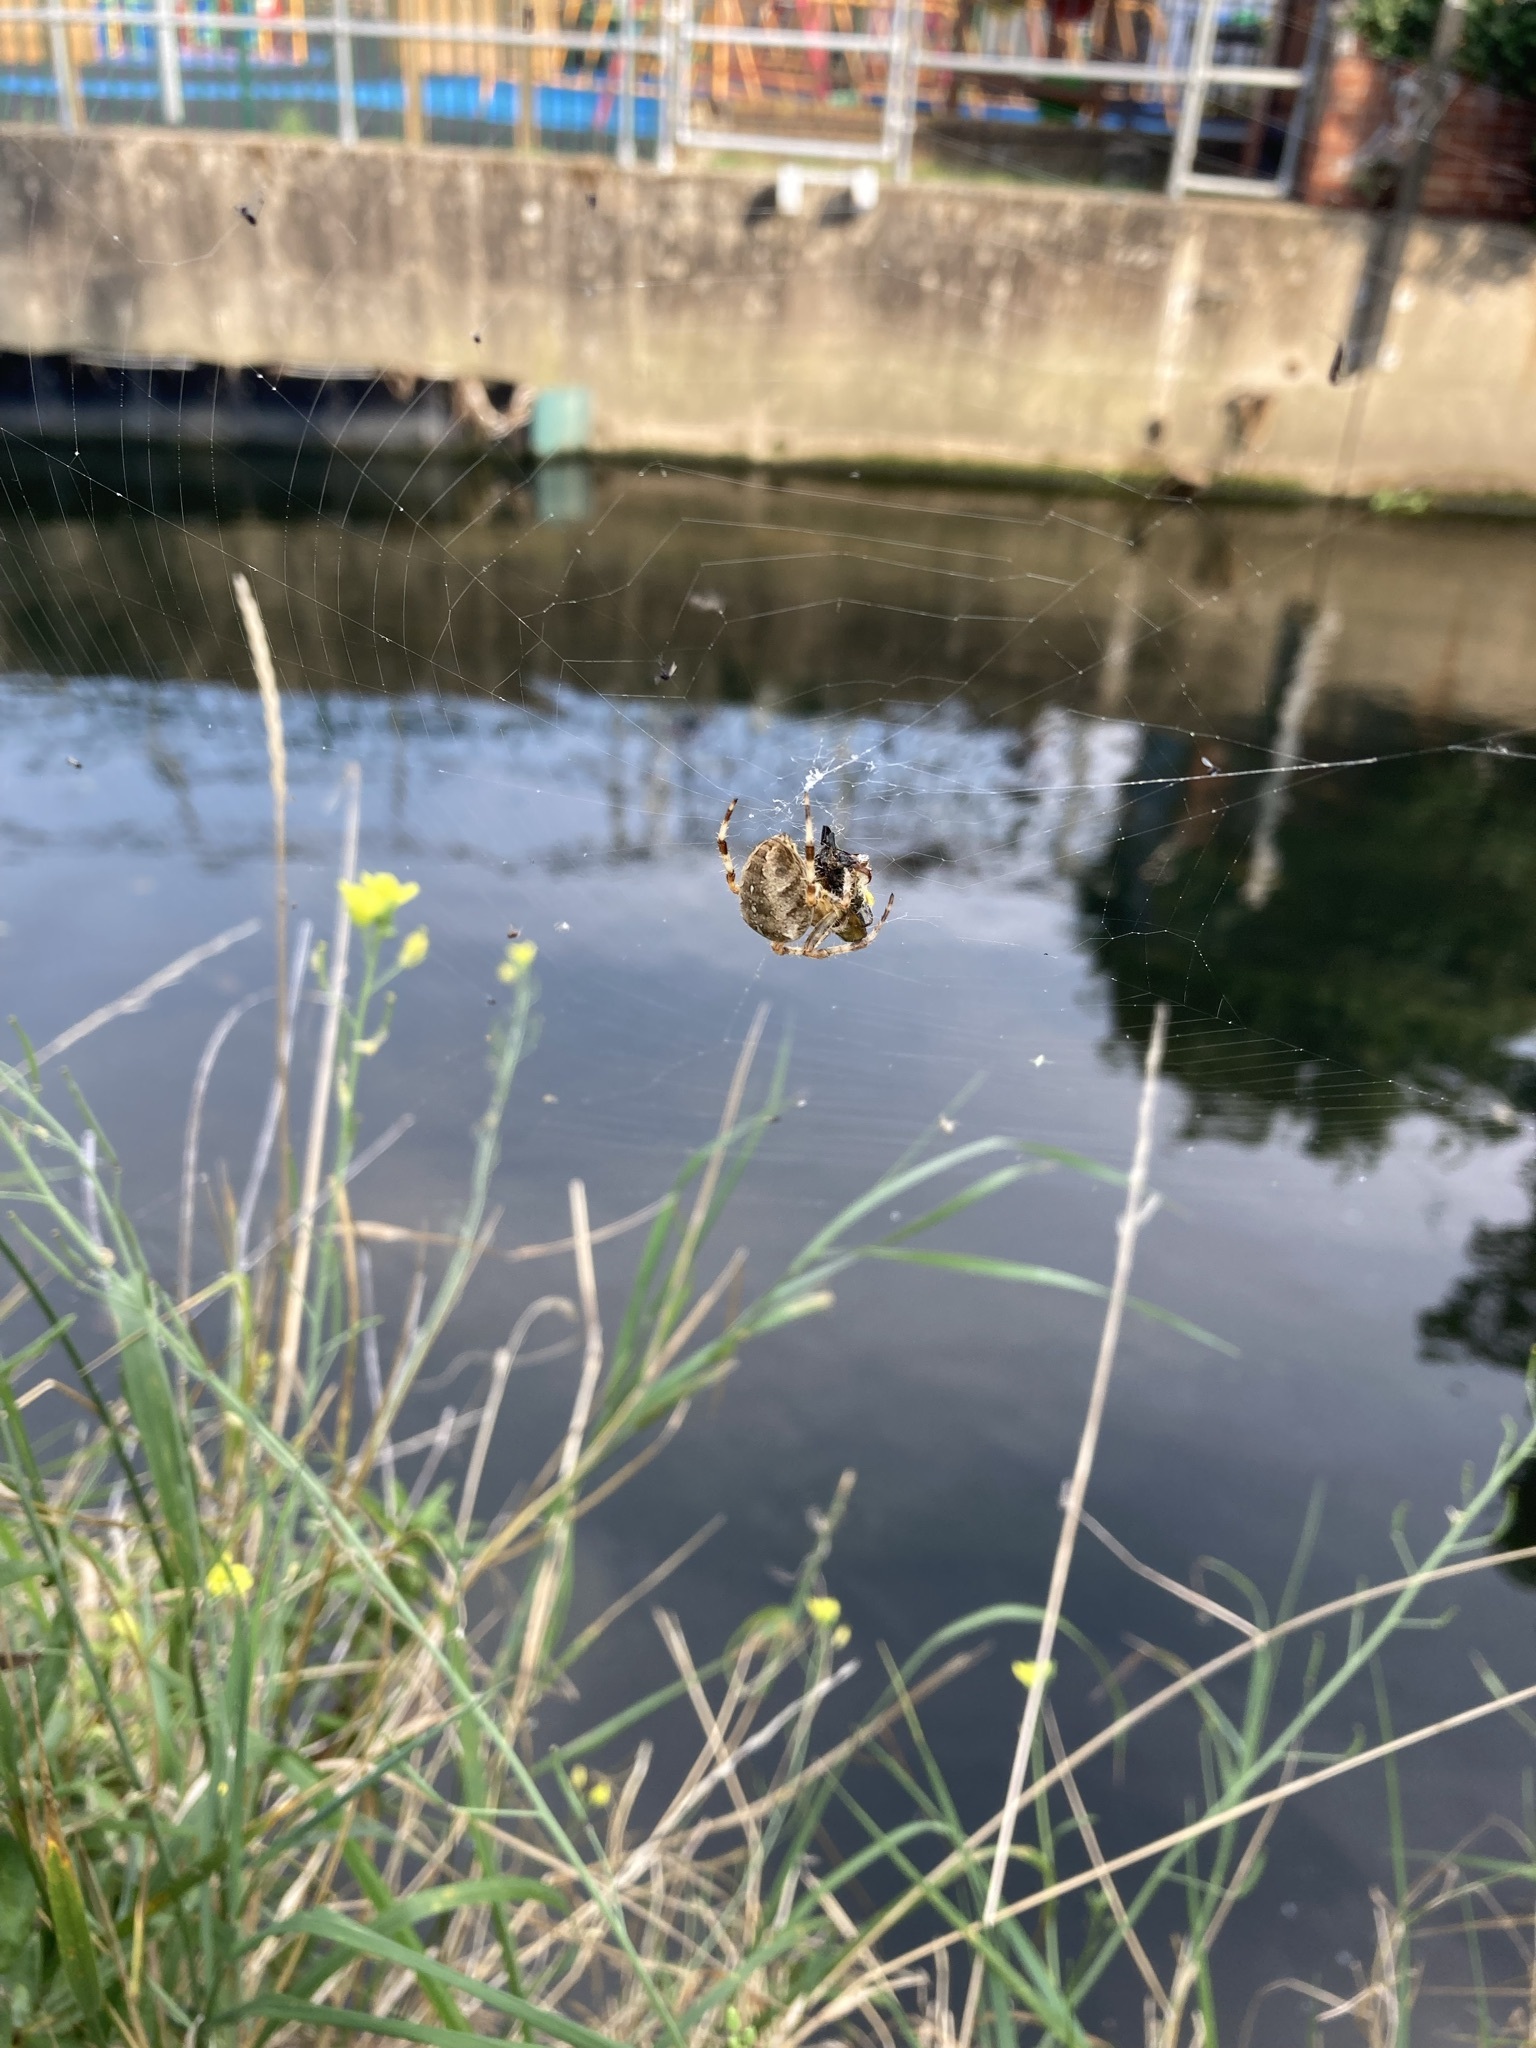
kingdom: Animalia
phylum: Arthropoda
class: Arachnida
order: Araneae
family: Araneidae
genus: Araneus
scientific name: Araneus diadematus
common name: Cross orbweaver
